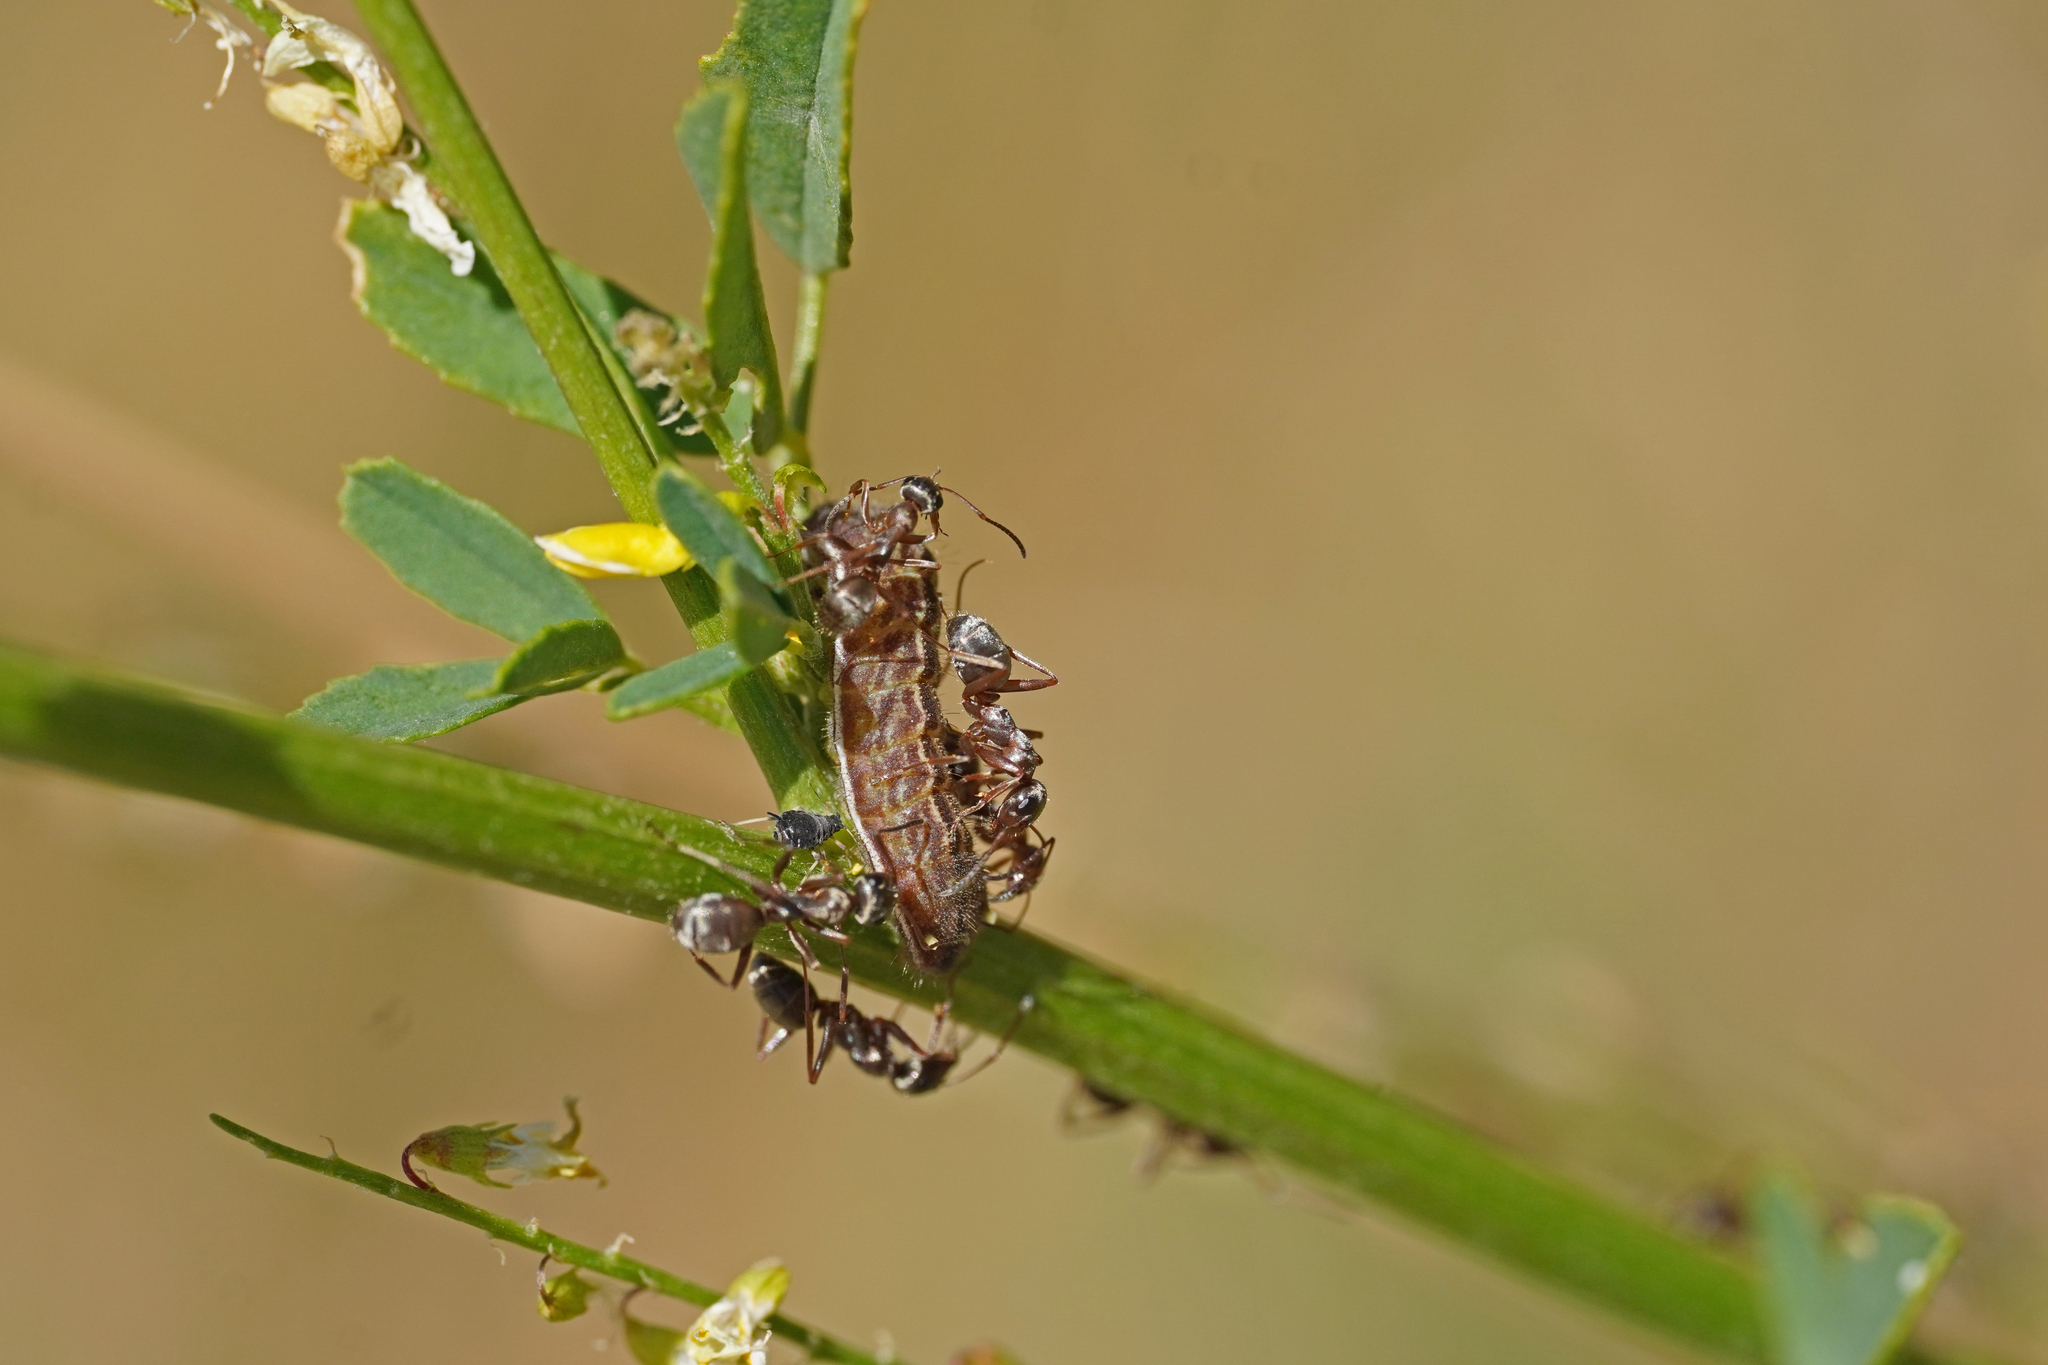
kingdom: Animalia
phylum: Arthropoda
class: Insecta
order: Lepidoptera
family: Lycaenidae
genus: Lycaeides
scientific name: Lycaeides idas
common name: Northern blue
